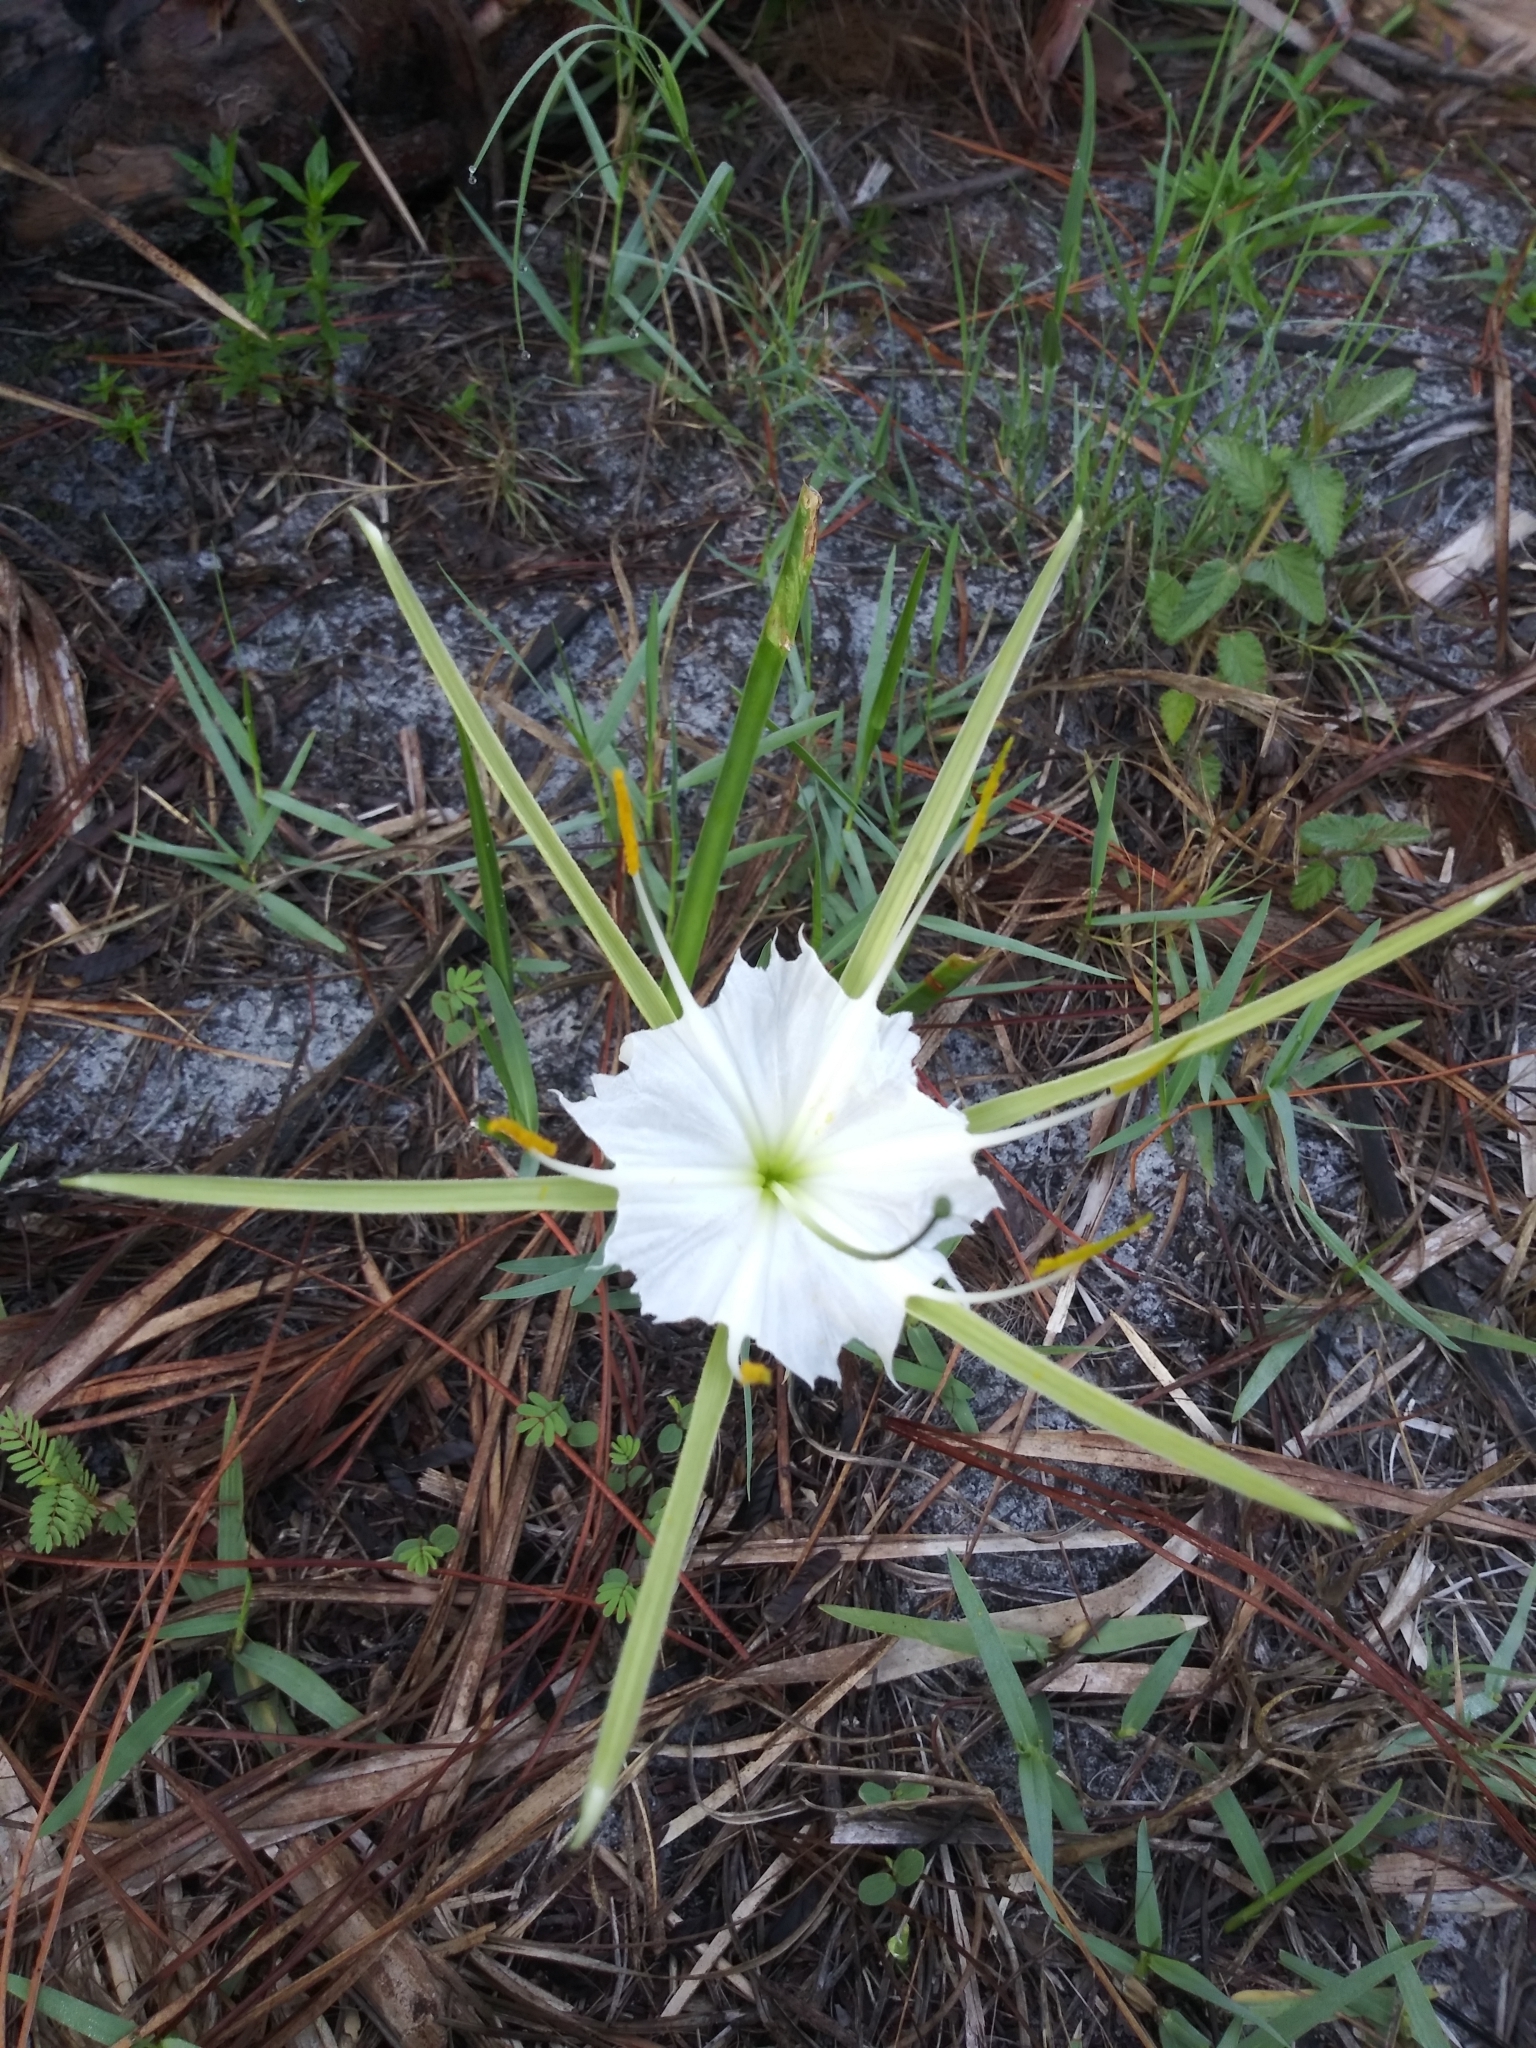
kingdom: Plantae
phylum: Tracheophyta
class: Liliopsida
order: Asparagales
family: Amaryllidaceae
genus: Hymenocallis
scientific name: Hymenocallis palmeri
